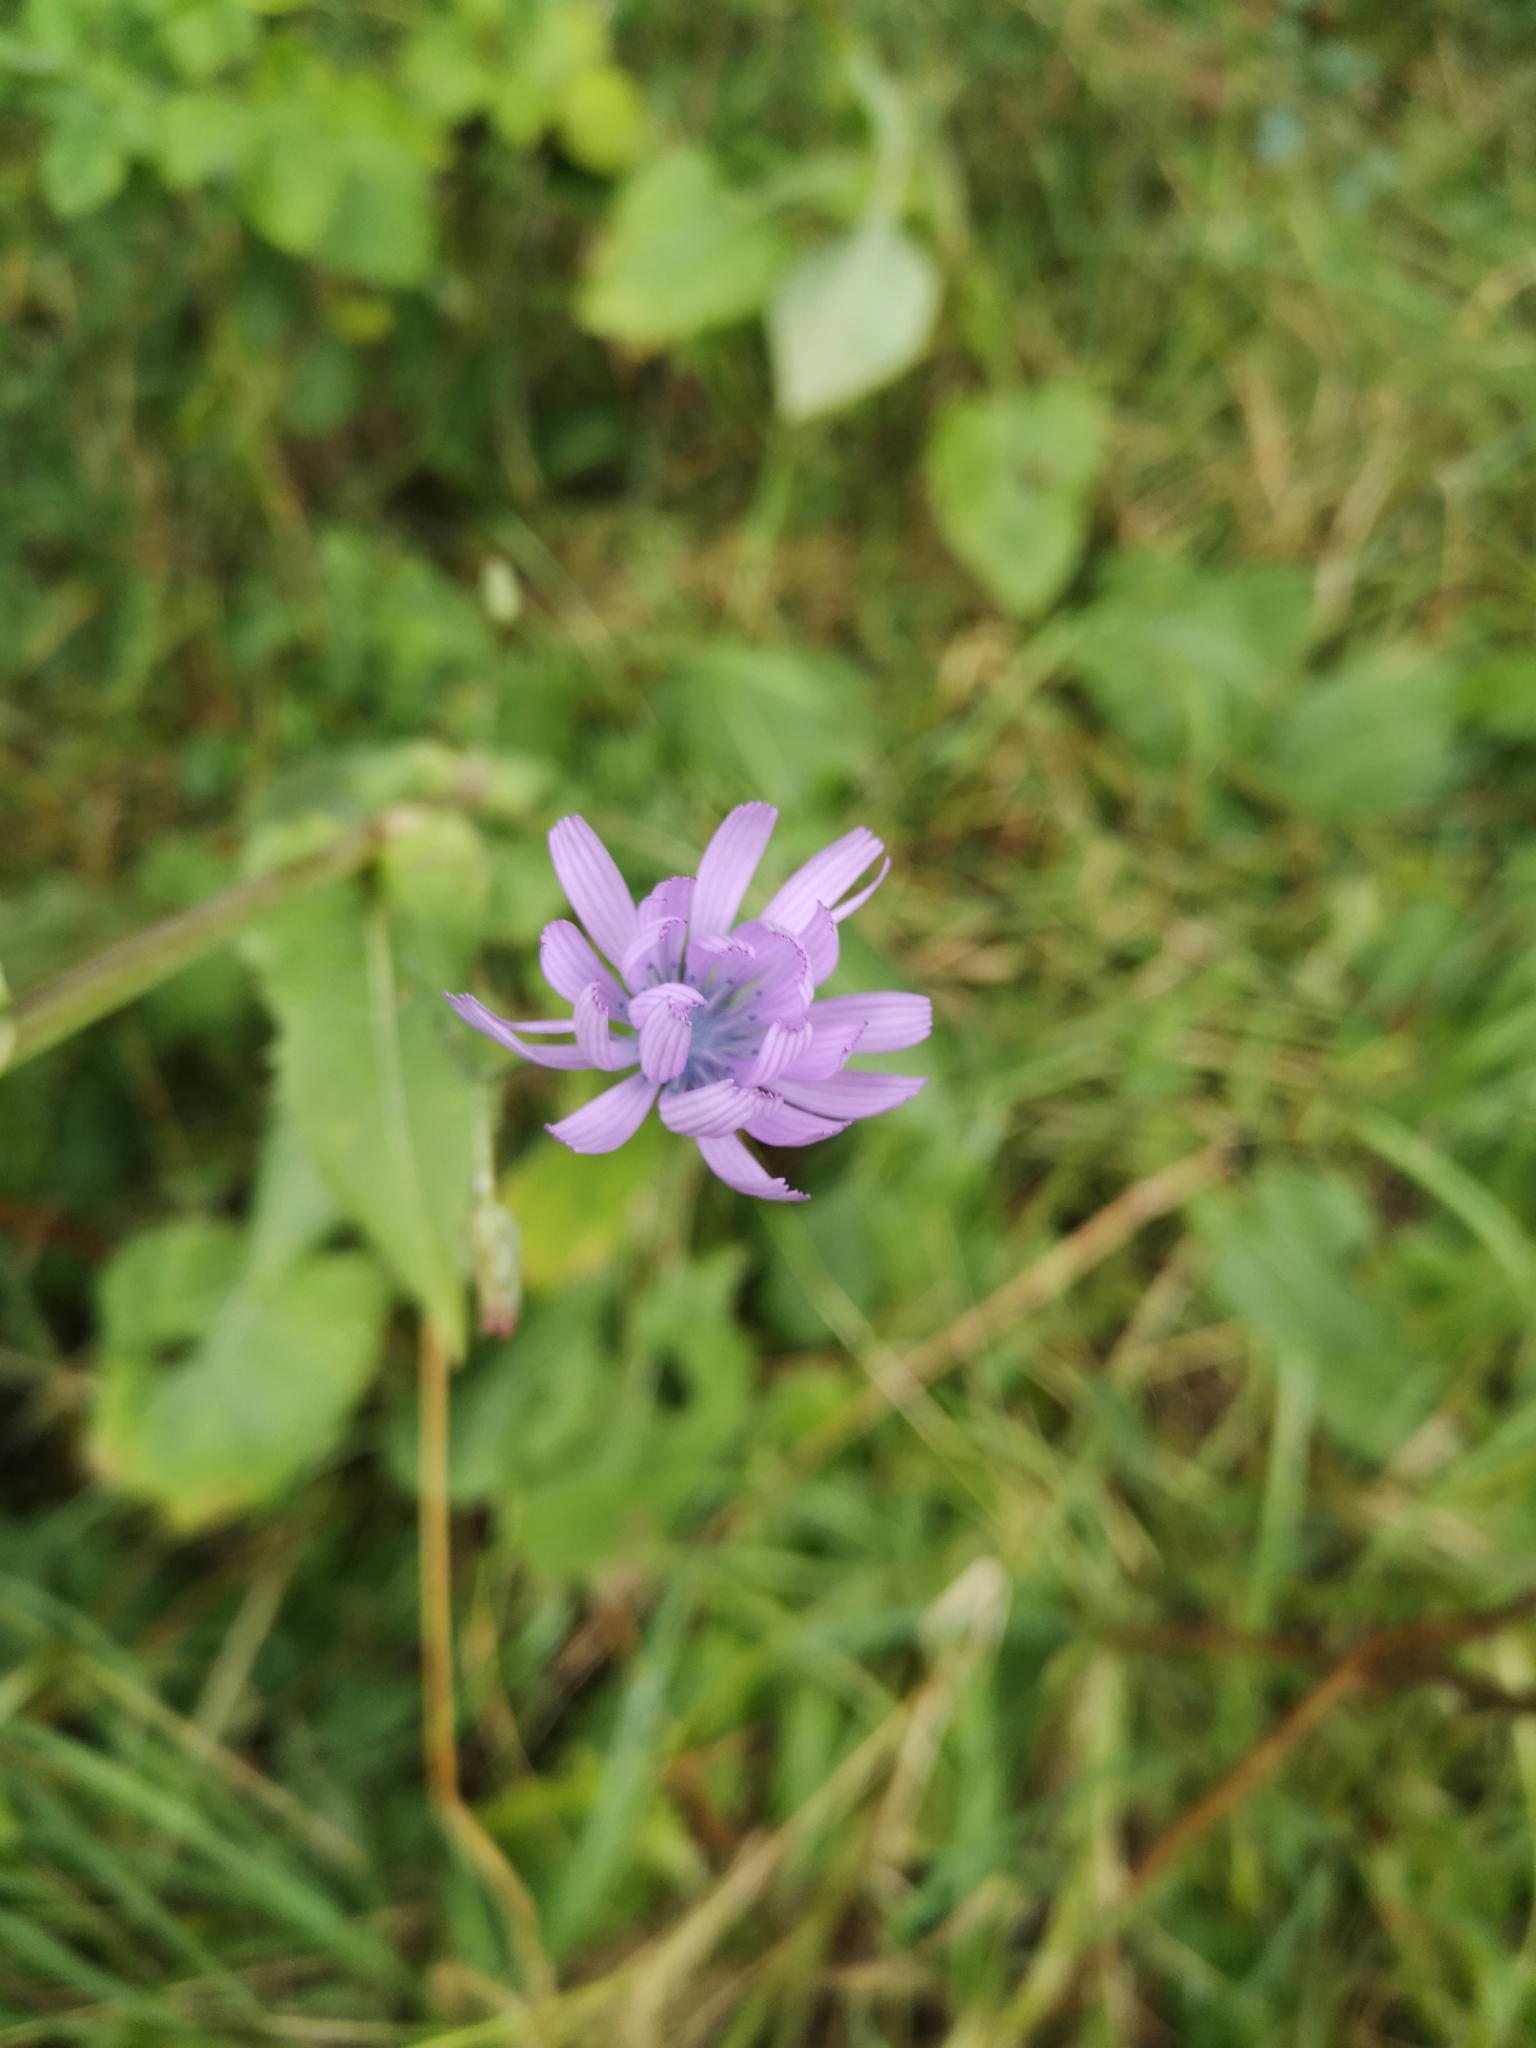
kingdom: Plantae
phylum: Tracheophyta
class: Magnoliopsida
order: Asterales
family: Asteraceae
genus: Lactuca
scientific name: Lactuca macrophylla
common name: Common blue-sow-thistle
